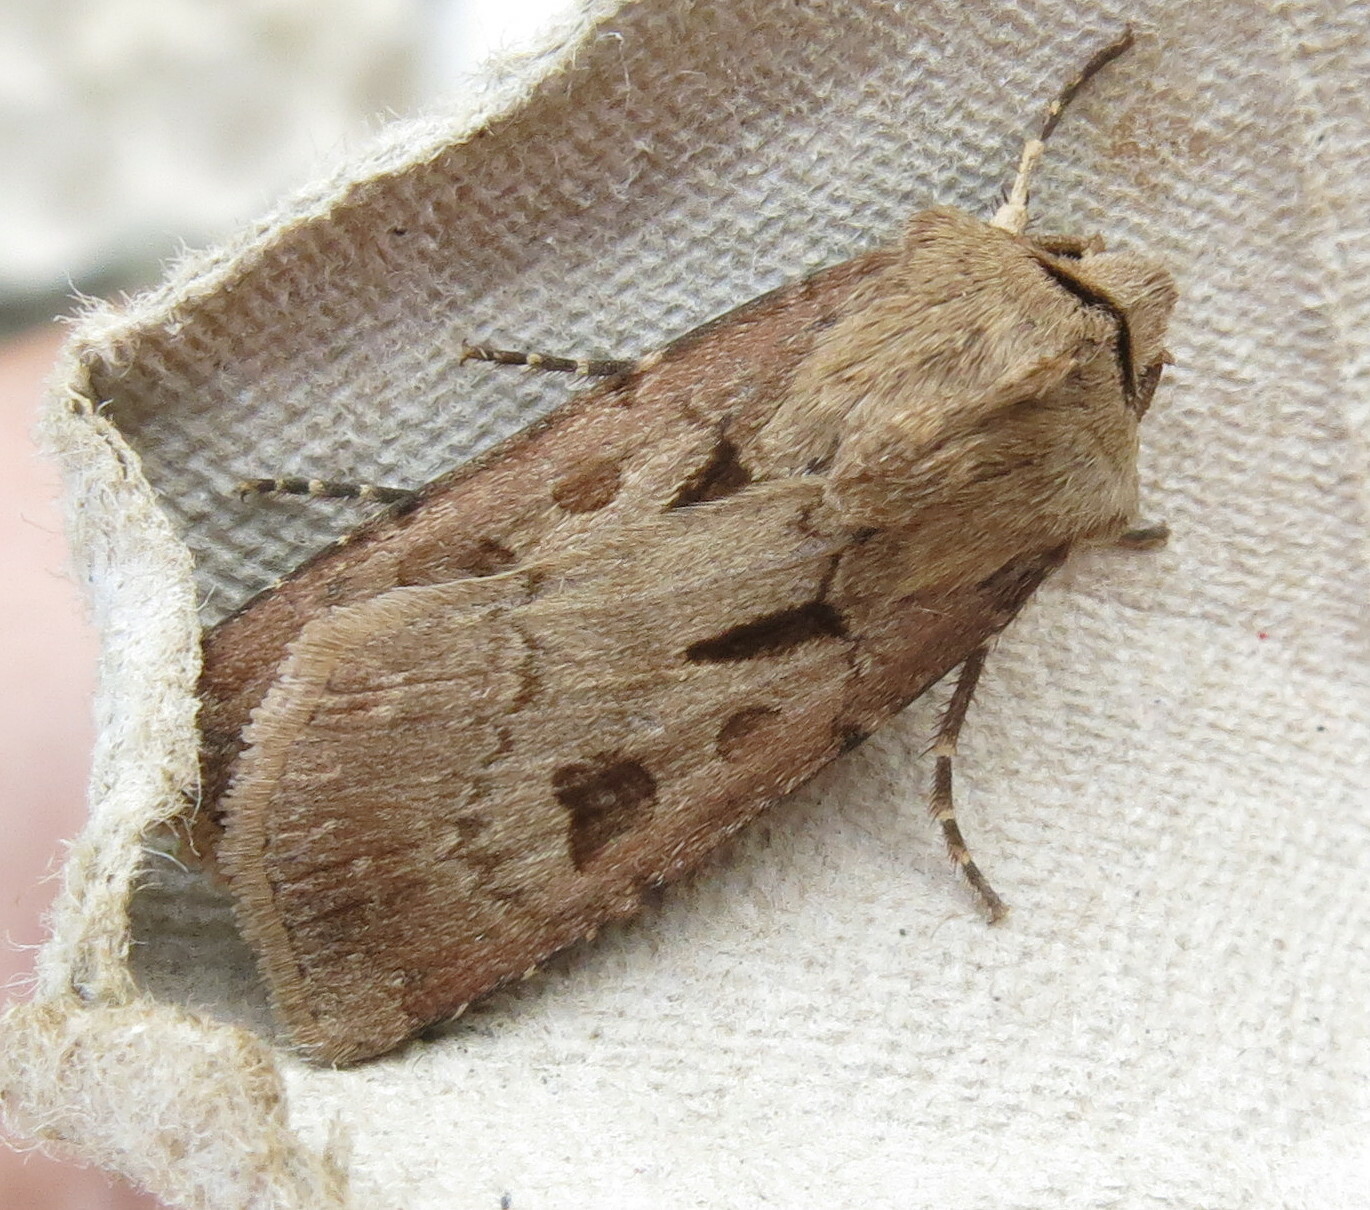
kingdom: Animalia
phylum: Arthropoda
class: Insecta
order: Lepidoptera
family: Noctuidae
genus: Agrotis
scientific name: Agrotis exclamationis
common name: Heart and dart
